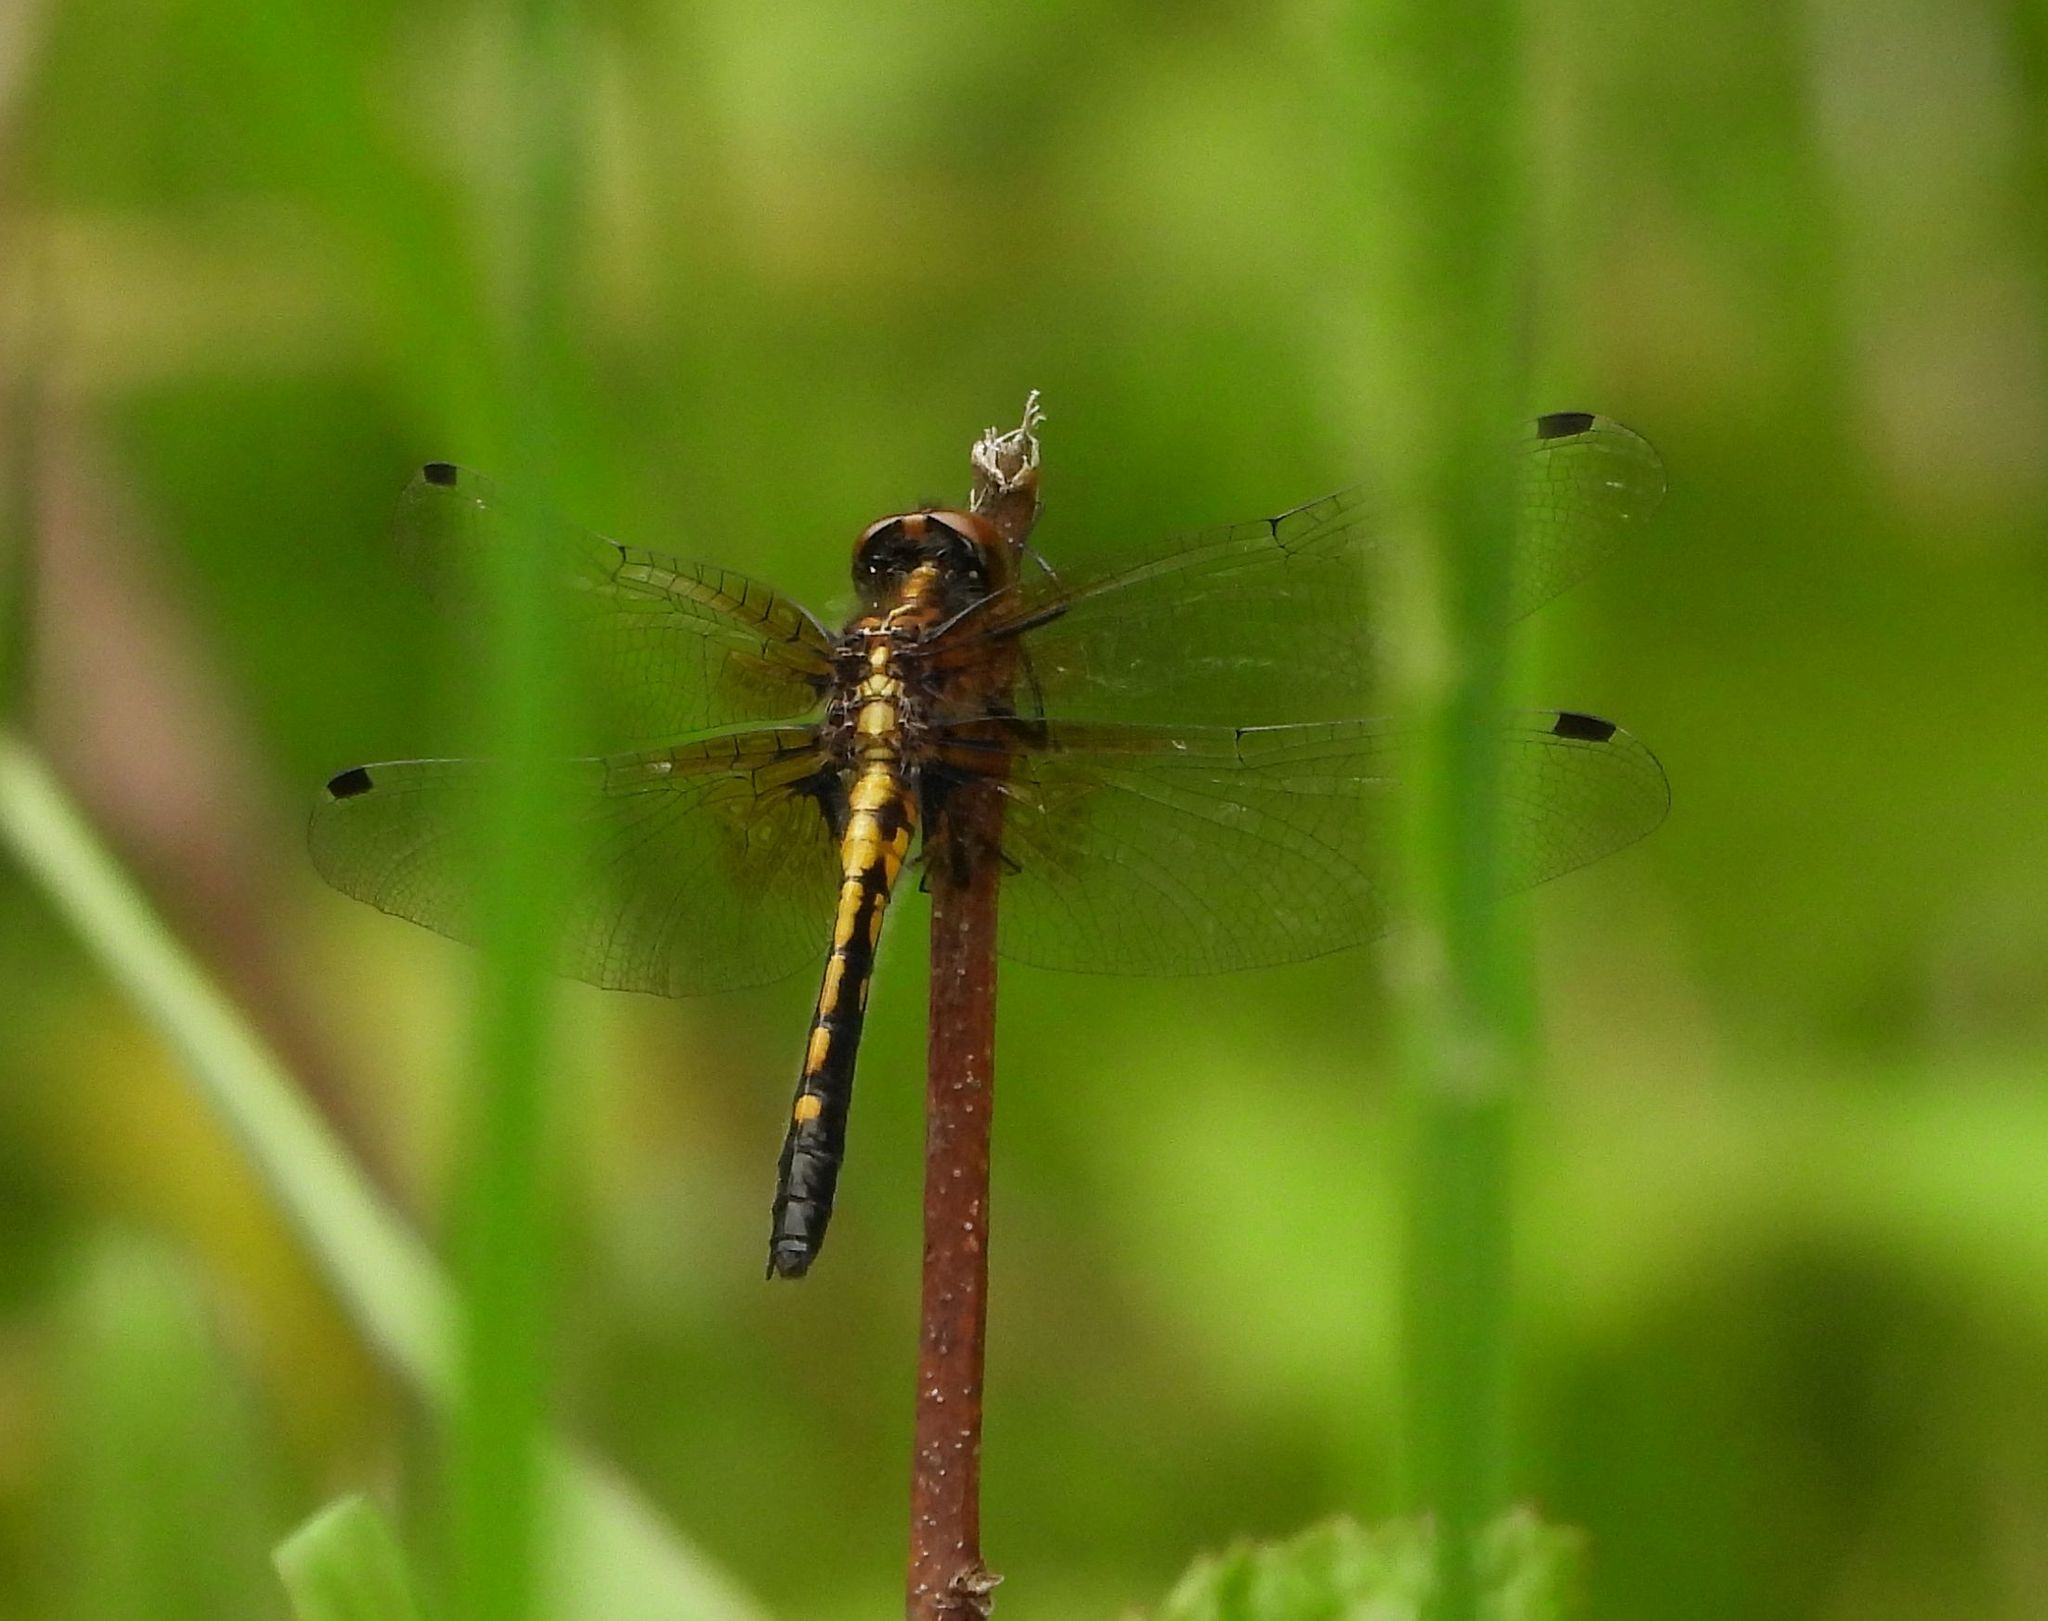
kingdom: Animalia
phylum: Arthropoda
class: Insecta
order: Odonata
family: Libellulidae
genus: Leucorrhinia
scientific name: Leucorrhinia intacta
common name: Dot-tailed whiteface
